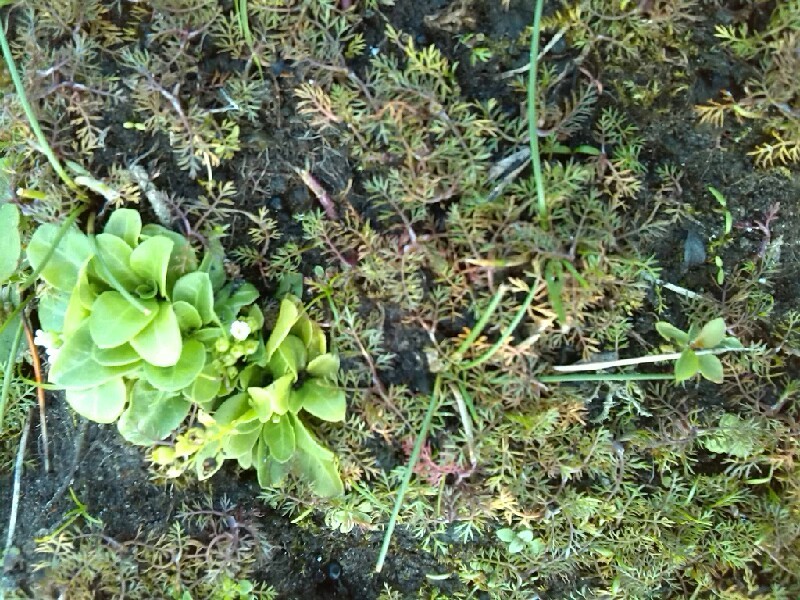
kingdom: Plantae
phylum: Tracheophyta
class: Magnoliopsida
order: Ericales
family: Primulaceae
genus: Samolus
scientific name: Samolus valerandi
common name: Brookweed
